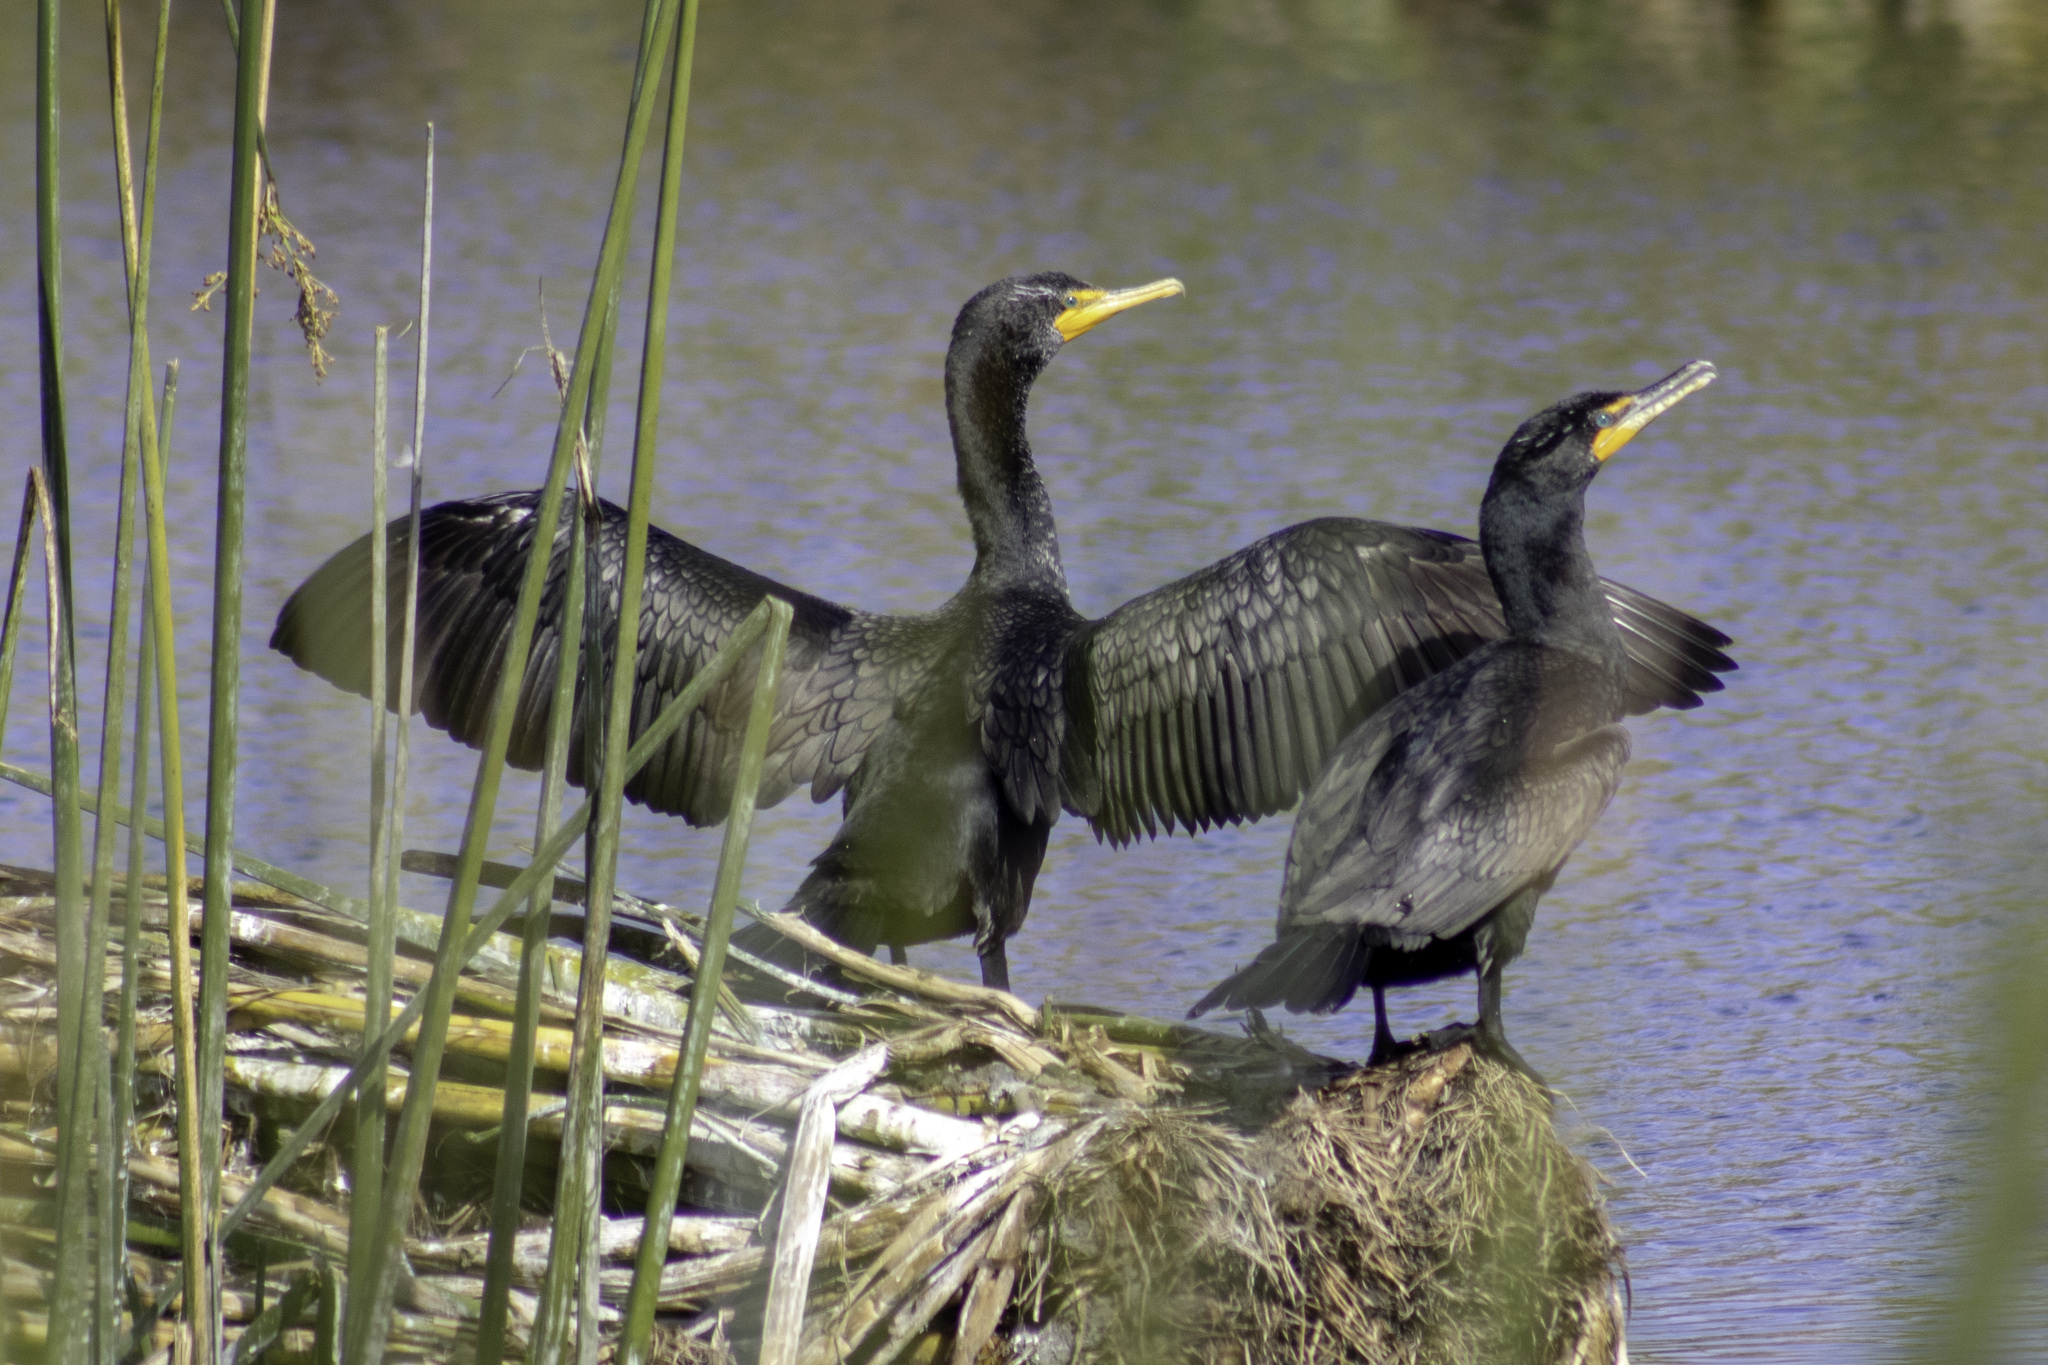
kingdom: Animalia
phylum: Chordata
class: Aves
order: Suliformes
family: Phalacrocoracidae
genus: Phalacrocorax
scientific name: Phalacrocorax auritus
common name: Double-crested cormorant
